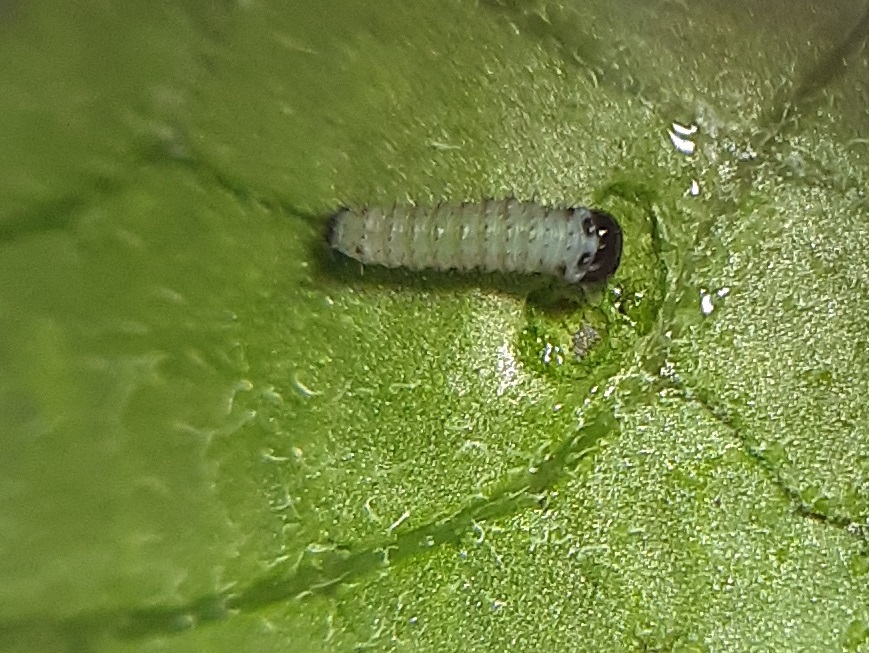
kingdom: Animalia
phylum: Arthropoda
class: Insecta
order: Lepidoptera
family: Nymphalidae
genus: Danaus
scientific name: Danaus plexippus
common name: Monarch
